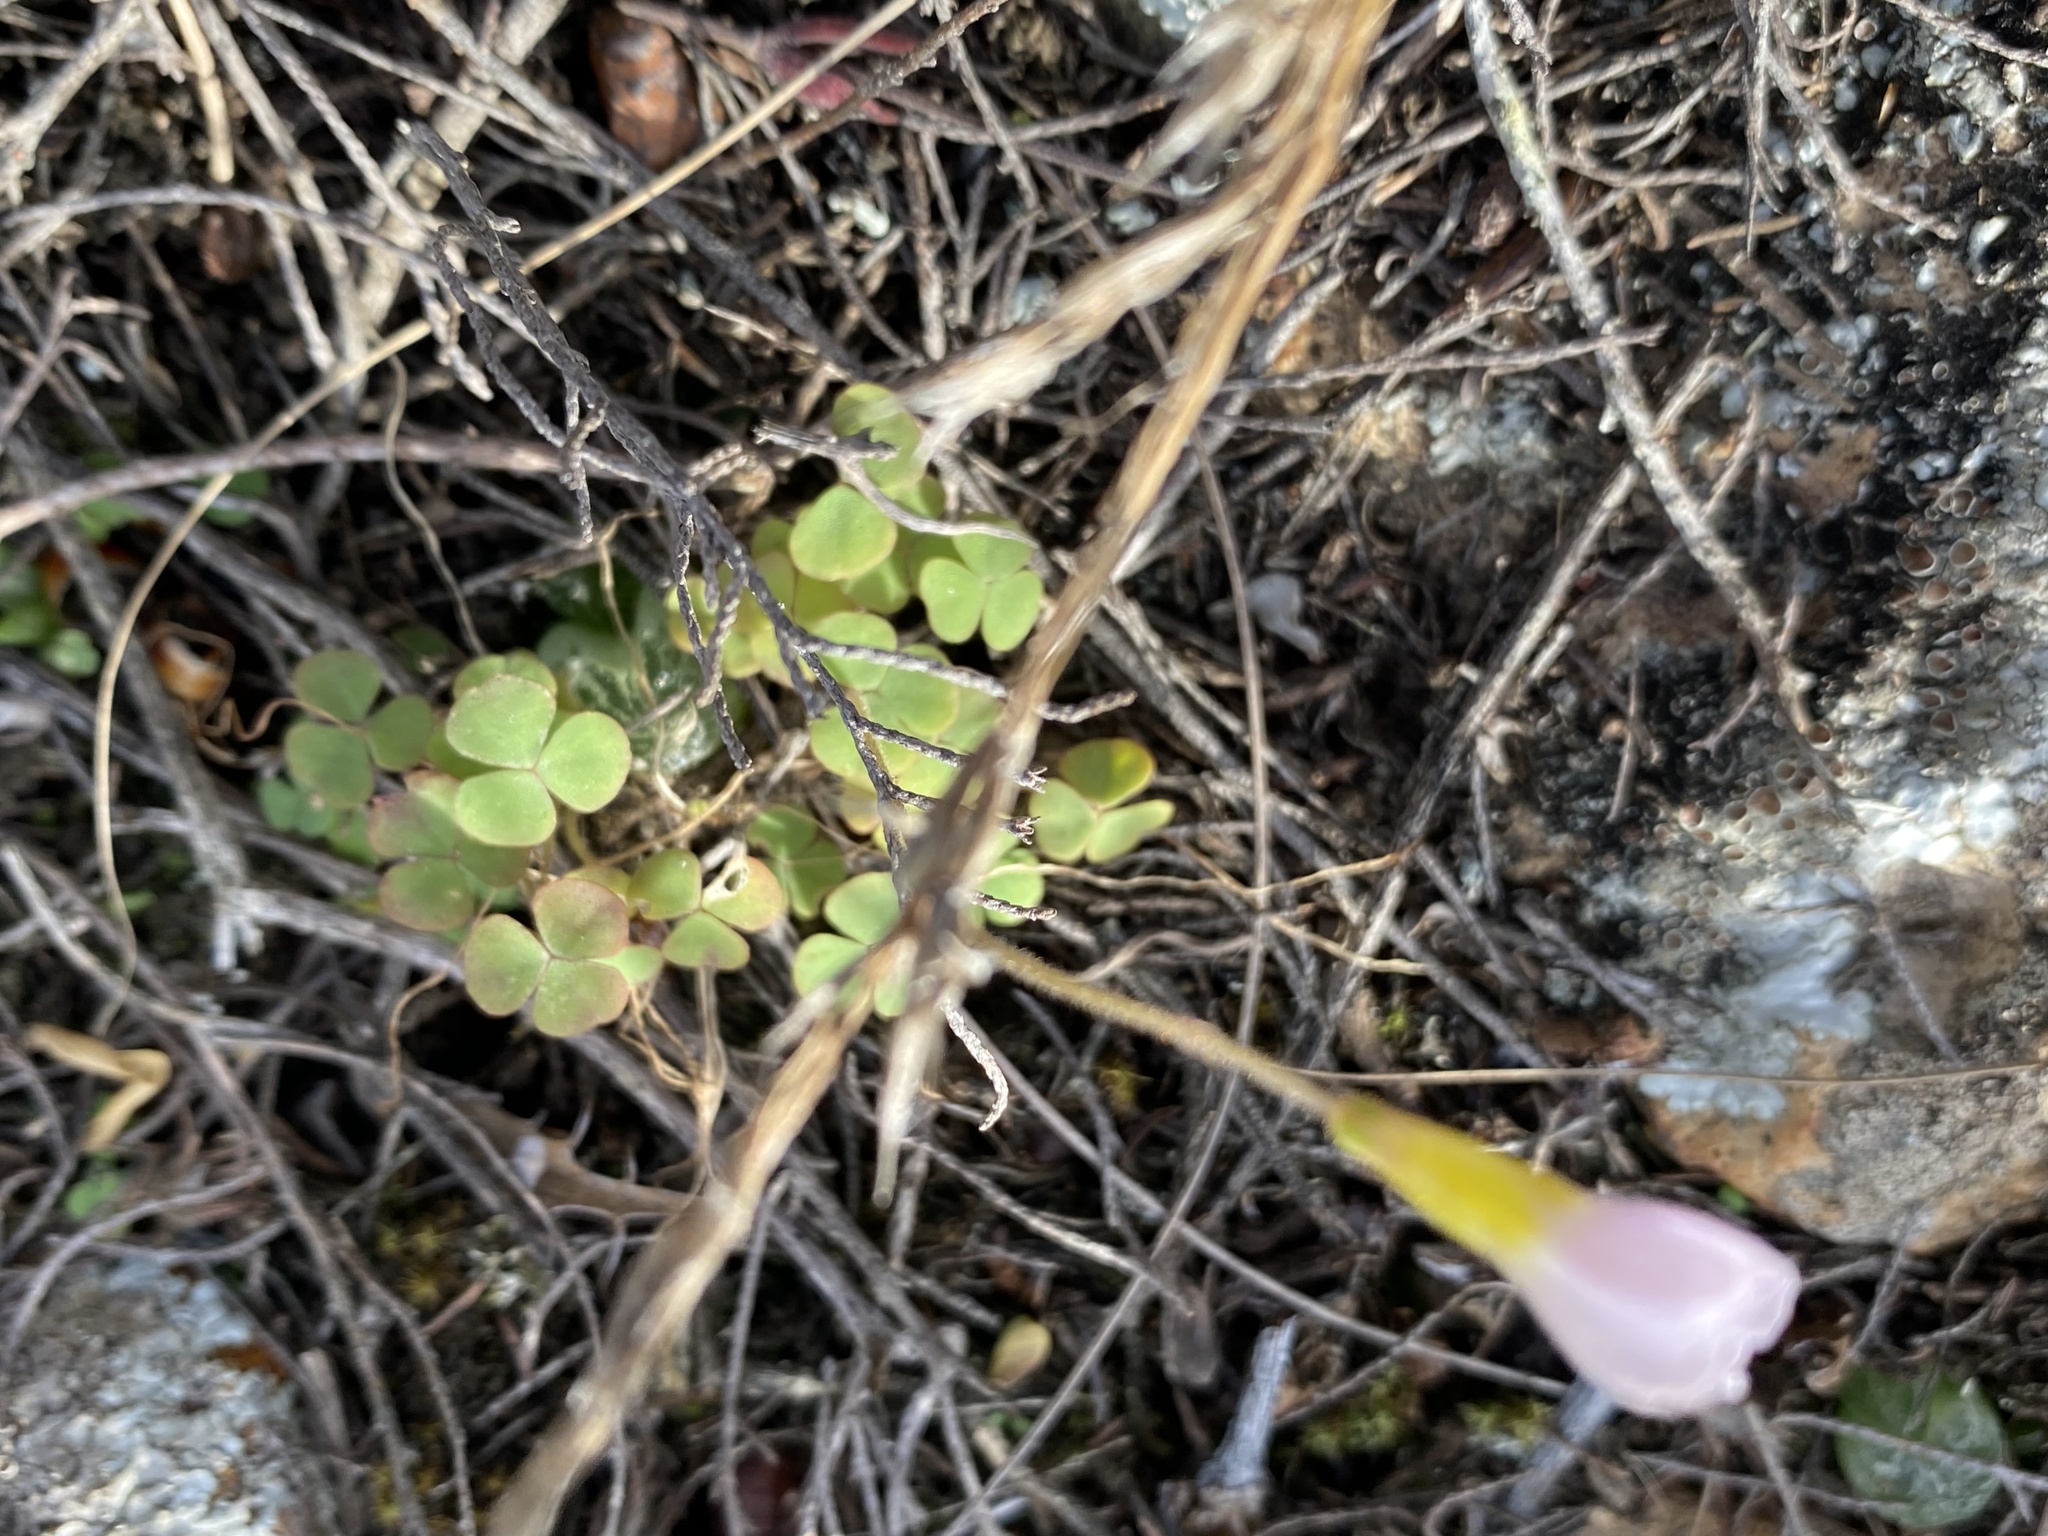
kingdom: Plantae
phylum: Tracheophyta
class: Magnoliopsida
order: Oxalidales
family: Oxalidaceae
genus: Oxalis
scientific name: Oxalis punctata
